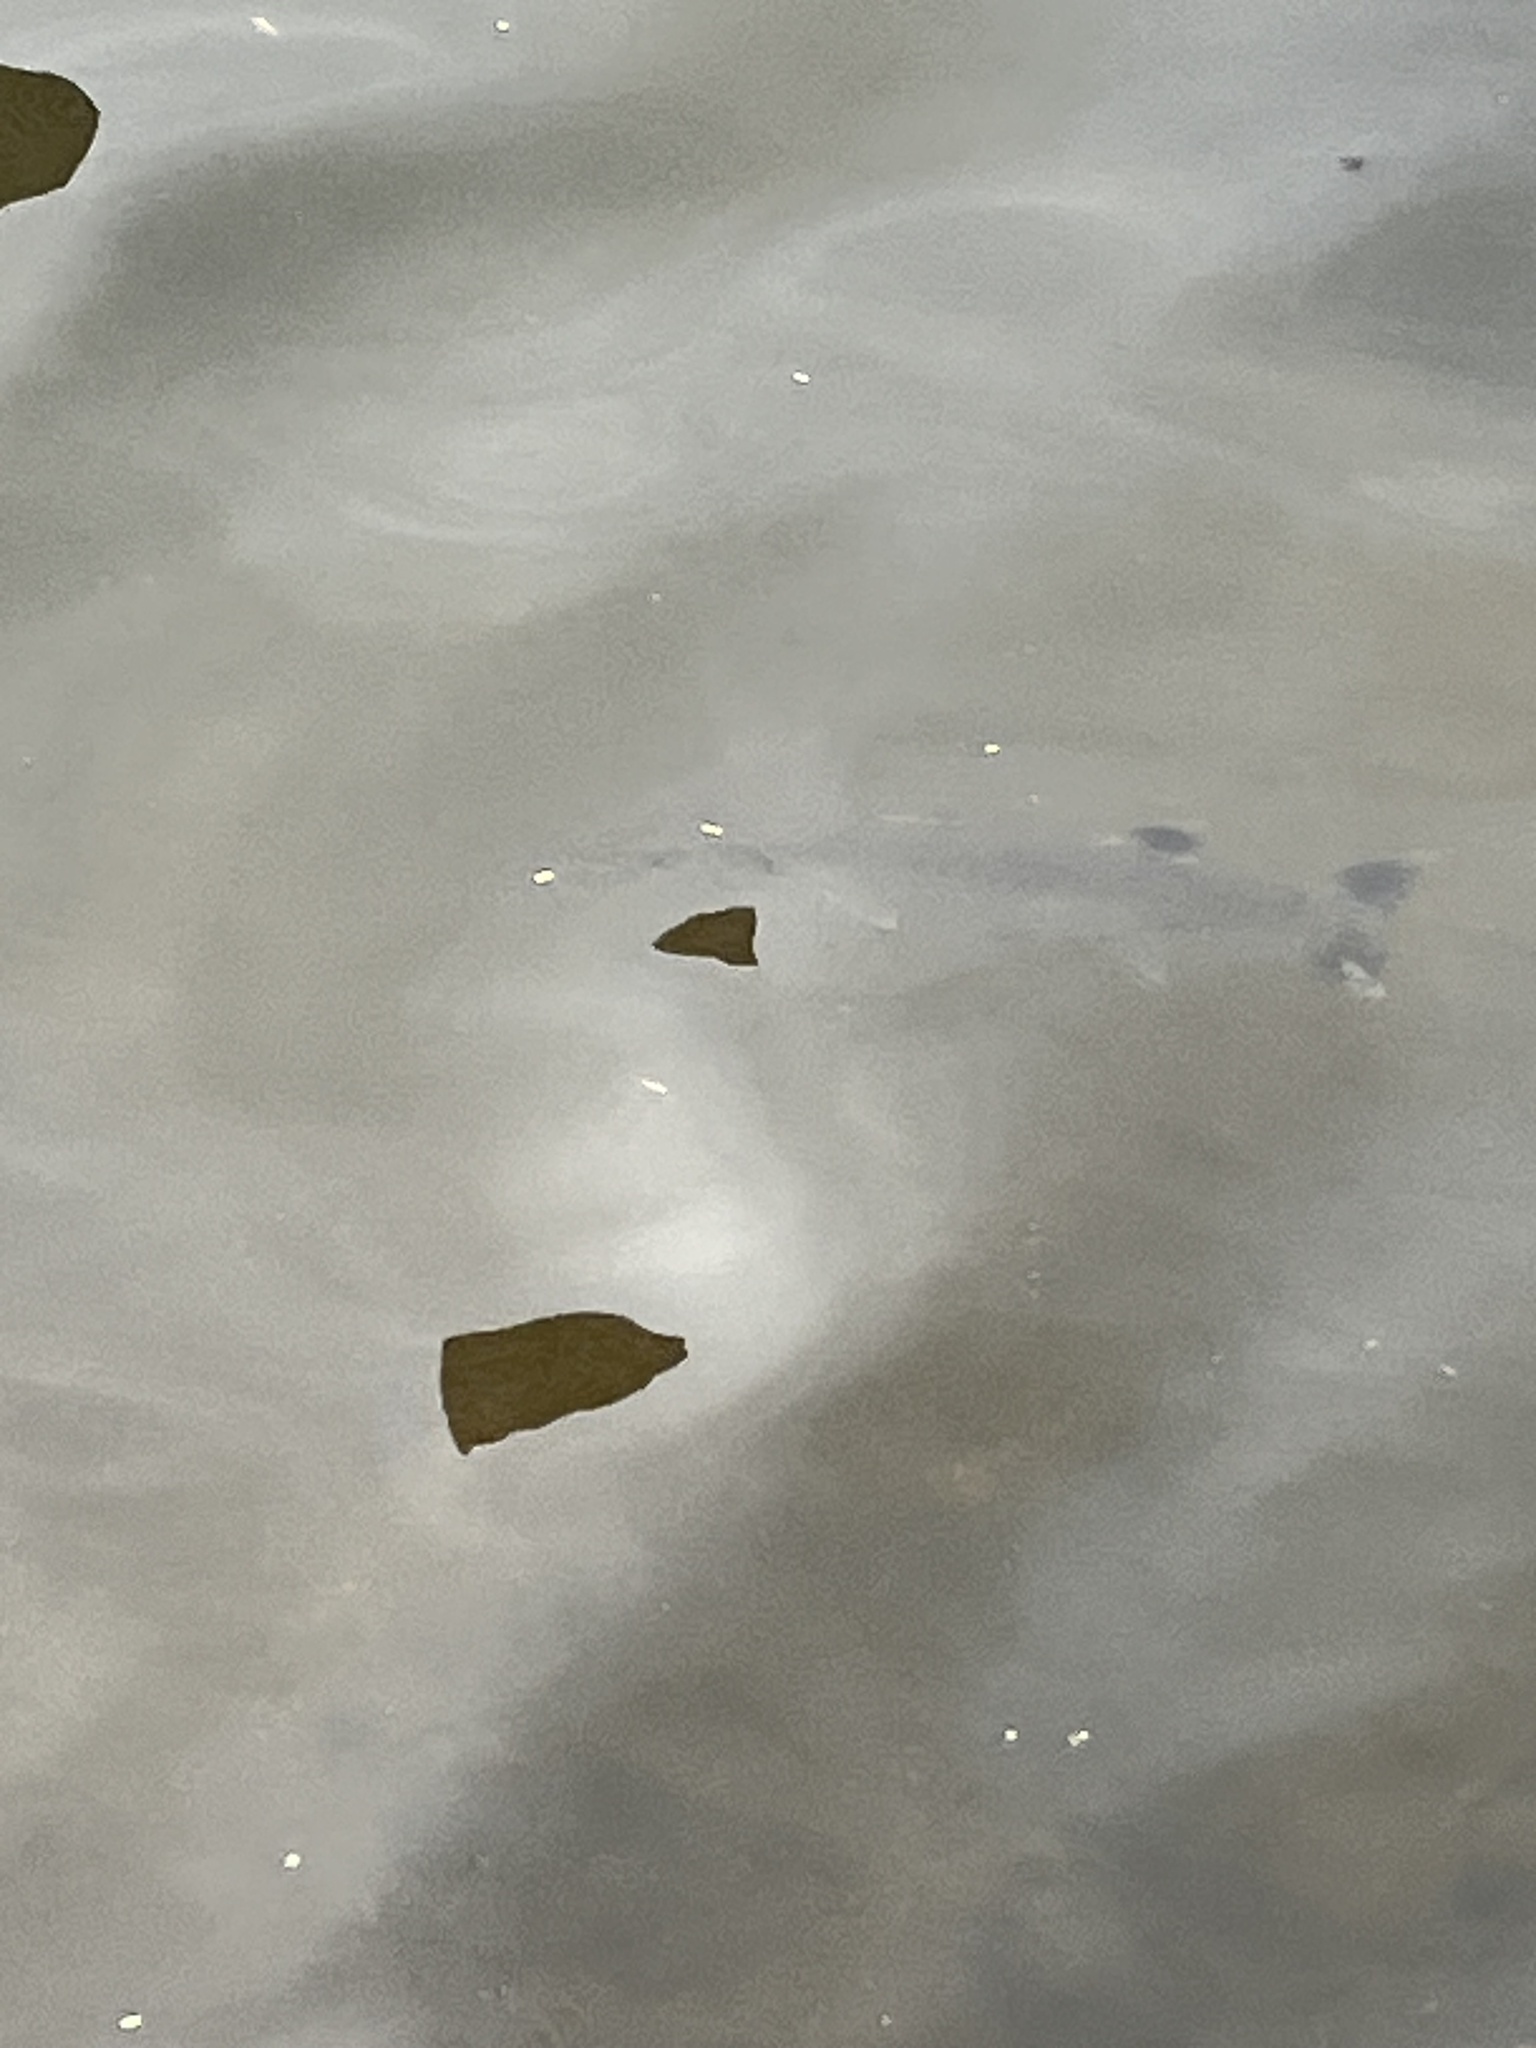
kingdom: Animalia
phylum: Chordata
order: Perciformes
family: Sphyraenidae
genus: Sphyraena
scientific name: Sphyraena barracuda
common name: Great barracuda
